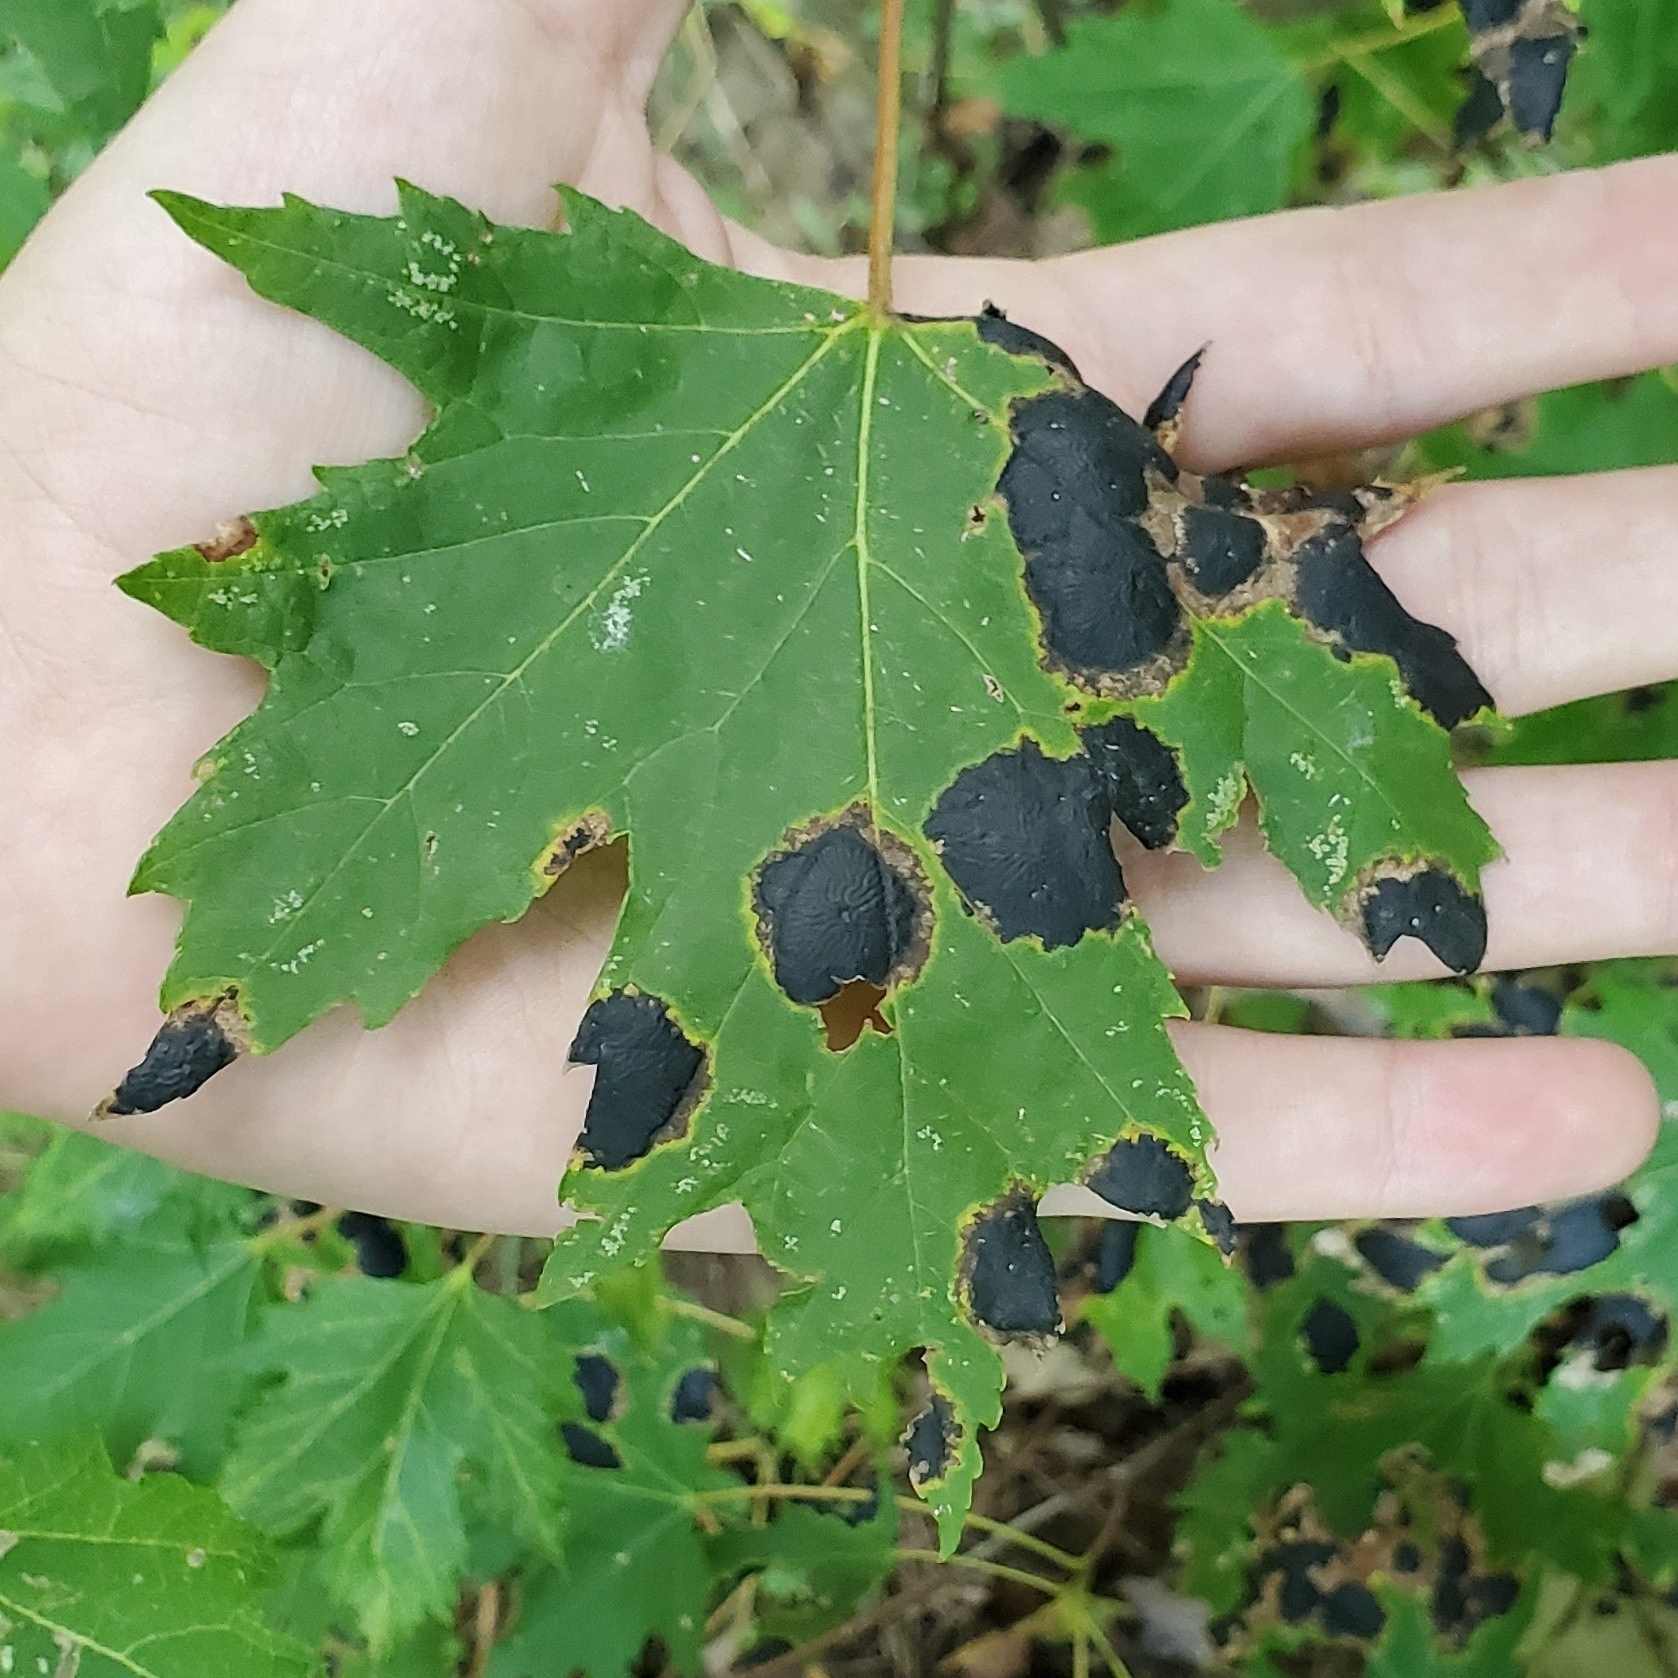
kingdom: Fungi
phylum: Ascomycota
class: Leotiomycetes
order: Rhytismatales
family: Rhytismataceae
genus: Rhytisma
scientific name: Rhytisma americanum
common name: American tar spot
